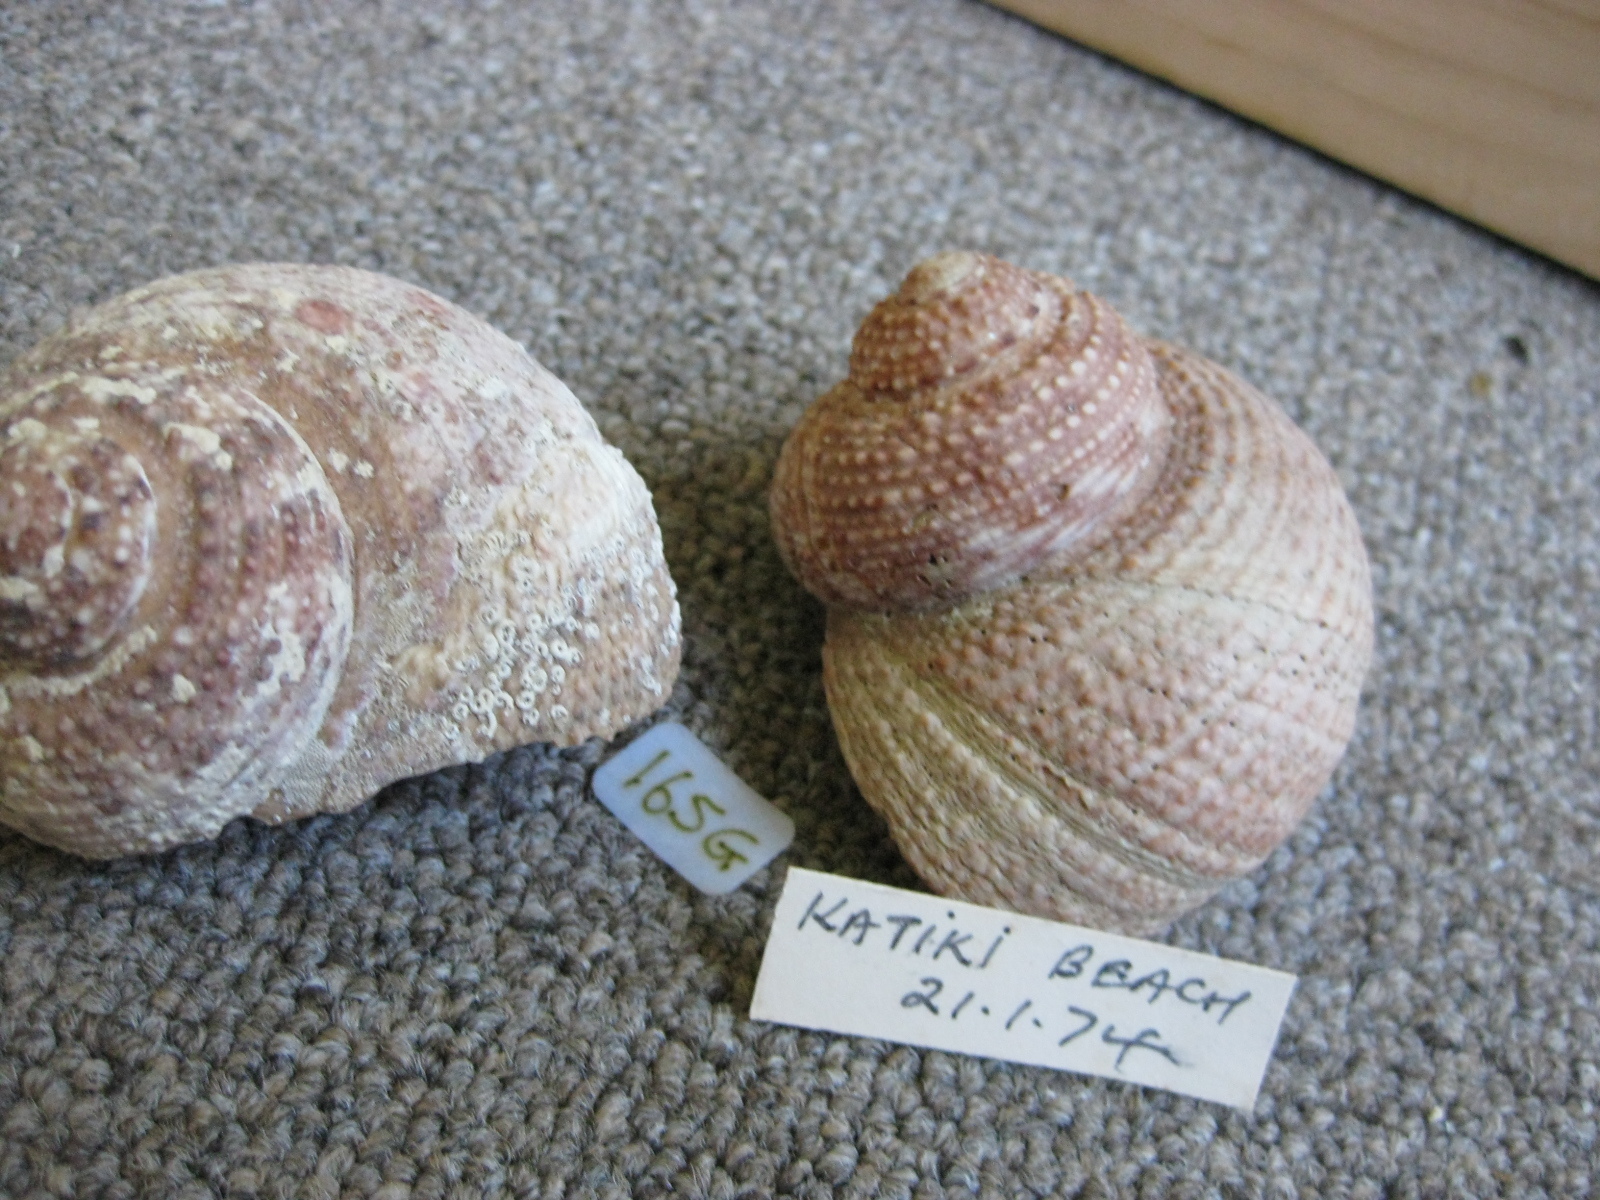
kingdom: Animalia
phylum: Mollusca
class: Gastropoda
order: Trochida
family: Turbinidae
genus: Modelia
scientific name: Modelia granosa
